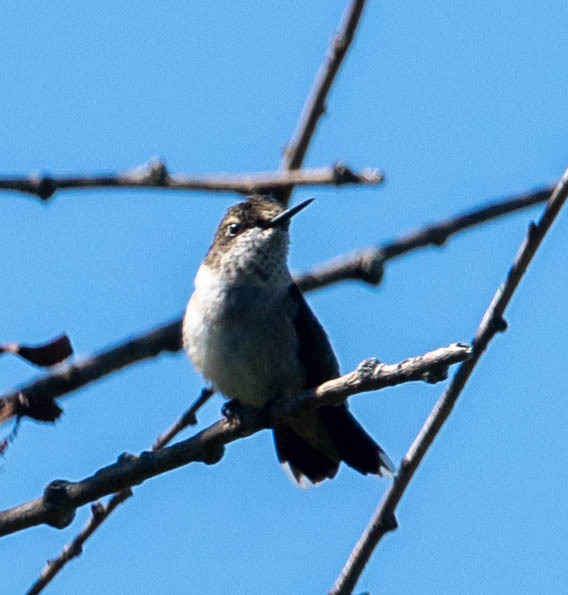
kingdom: Animalia
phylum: Chordata
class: Aves
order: Apodiformes
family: Trochilidae
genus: Archilochus
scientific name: Archilochus colubris
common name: Ruby-throated hummingbird
